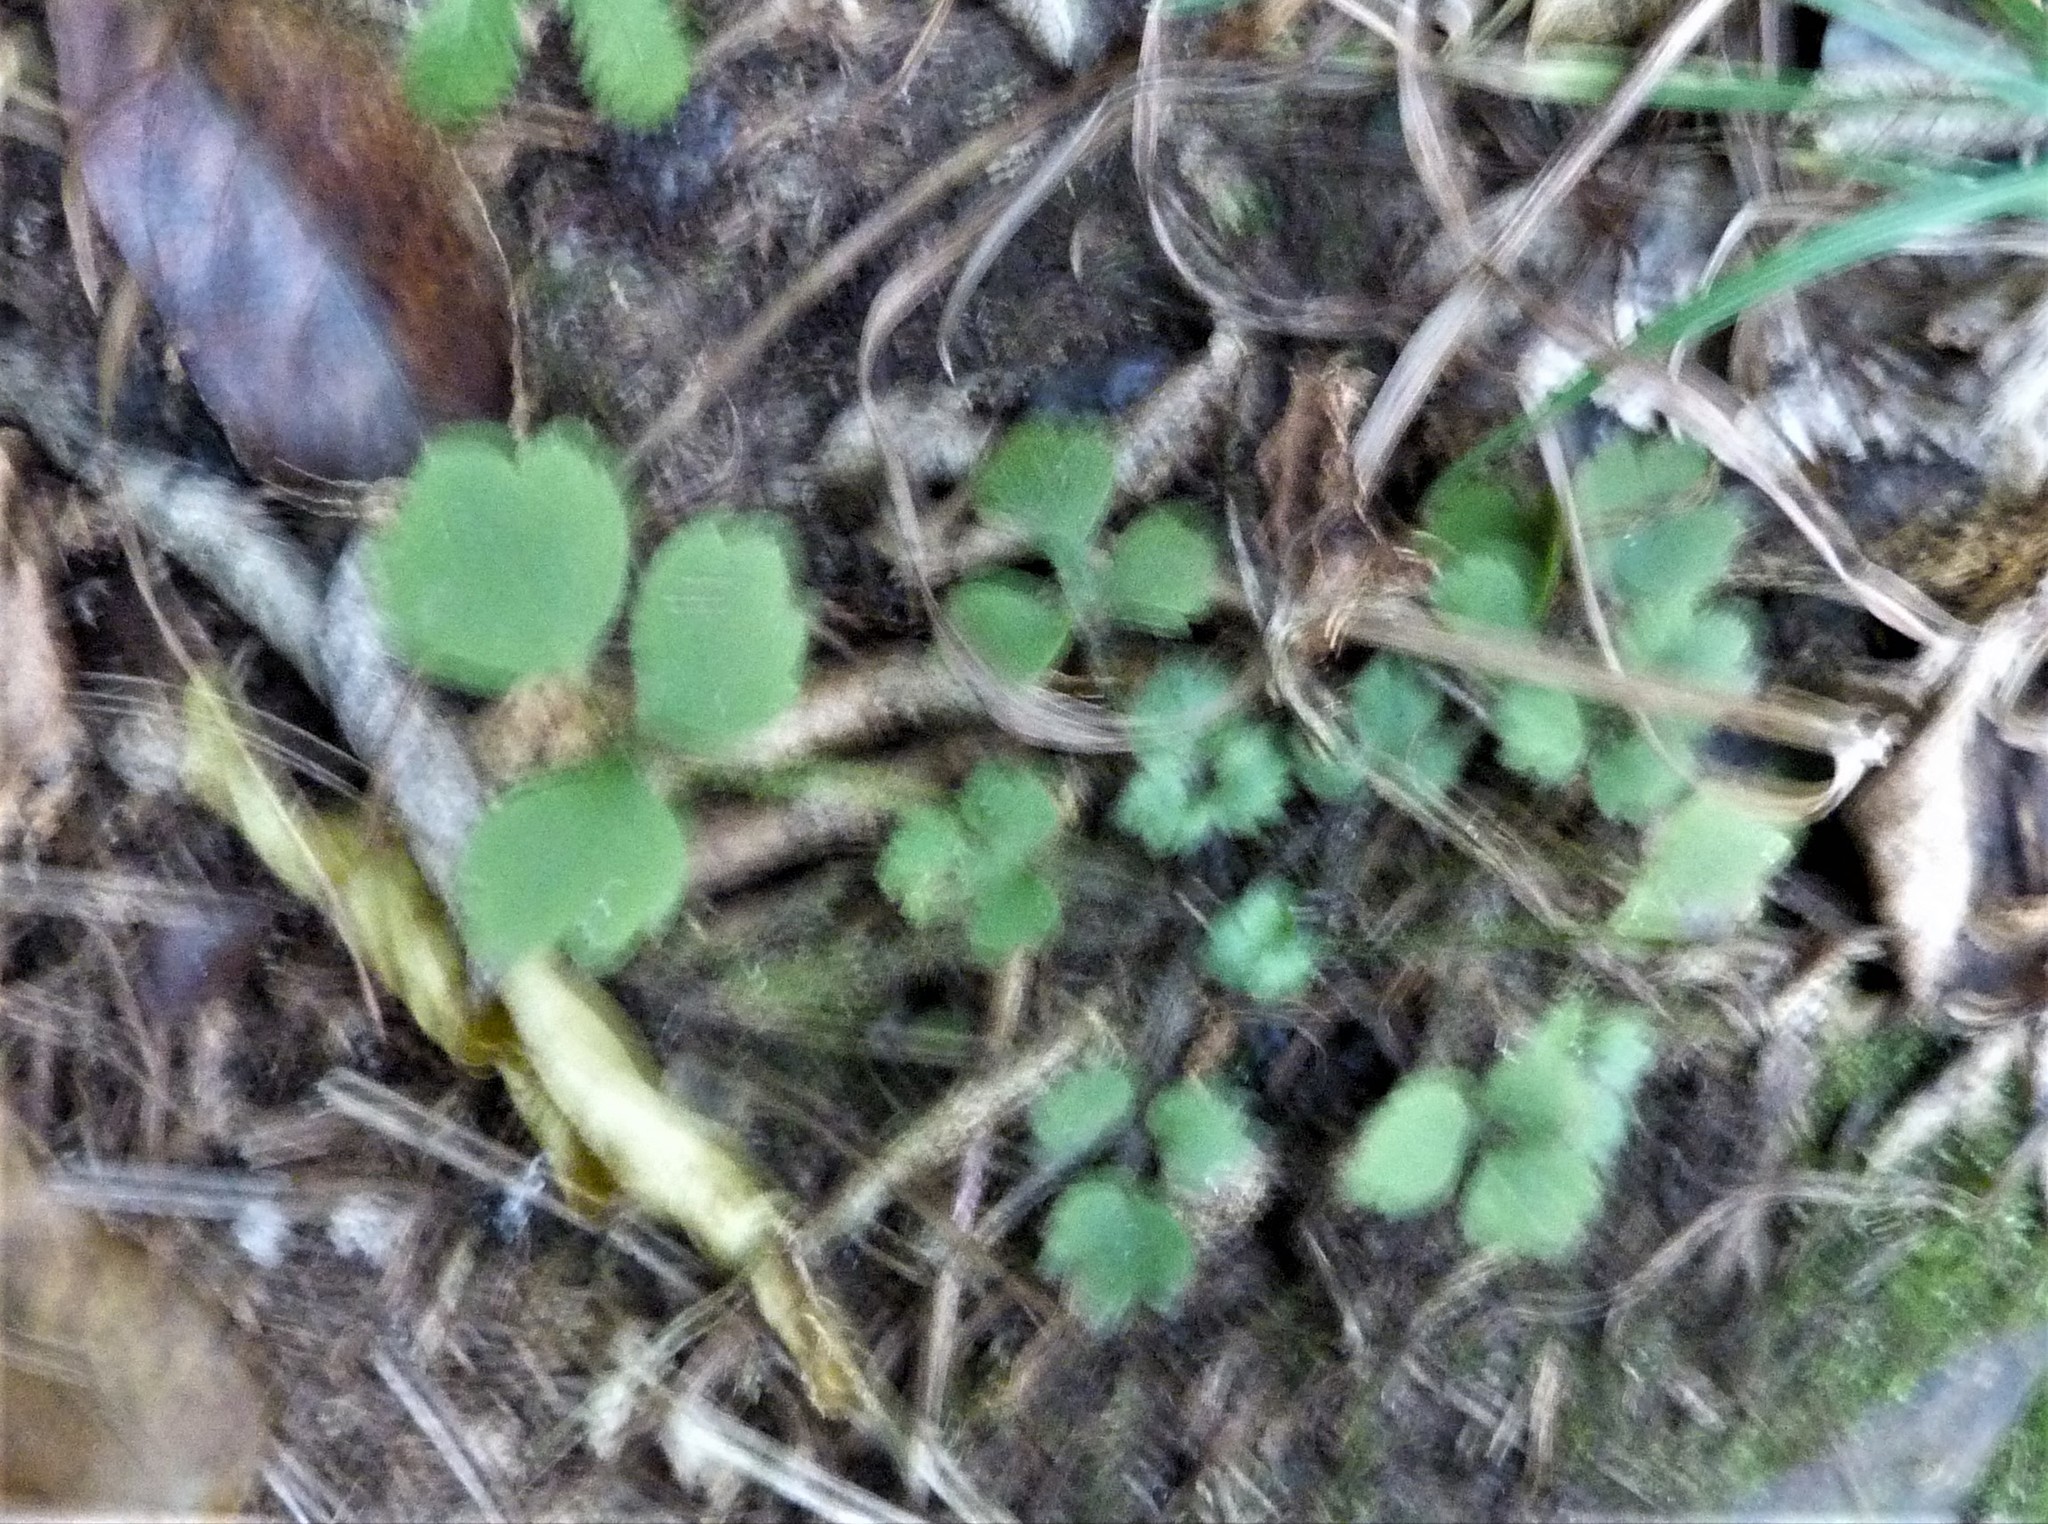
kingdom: Plantae
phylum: Tracheophyta
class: Magnoliopsida
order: Ranunculales
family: Ranunculaceae
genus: Ranunculus
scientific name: Ranunculus reflexus
